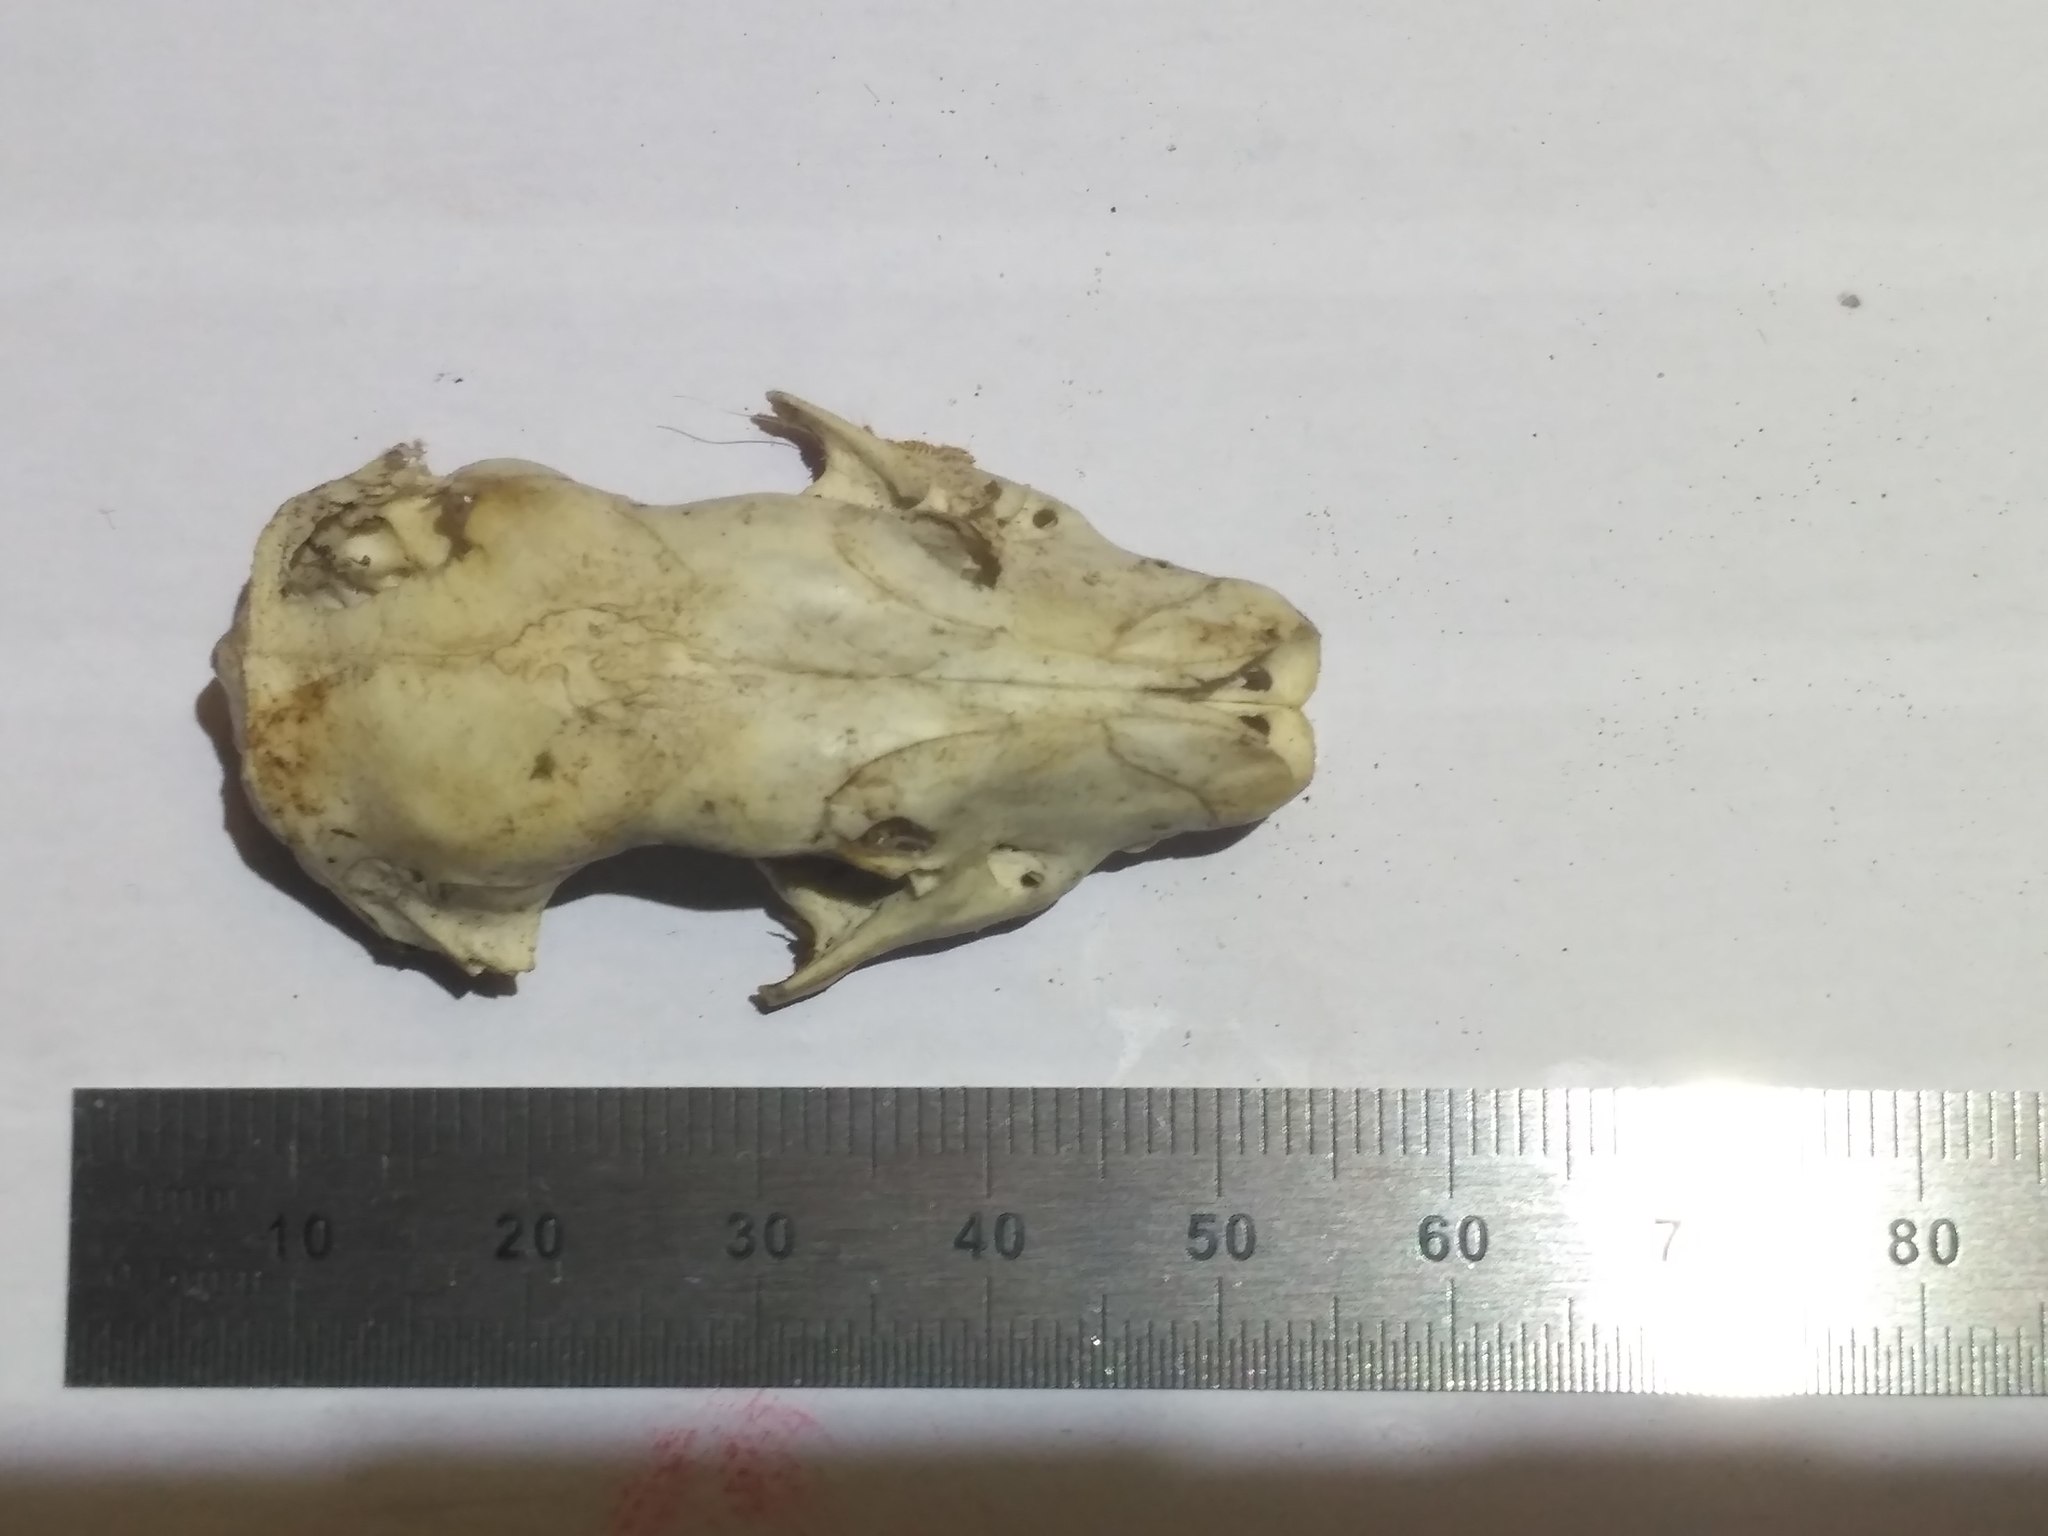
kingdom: Animalia
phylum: Chordata
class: Mammalia
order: Erinaceomorpha
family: Erinaceidae
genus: Erinaceus
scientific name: Erinaceus roumanicus
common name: Northern white-breasted hedgehog
